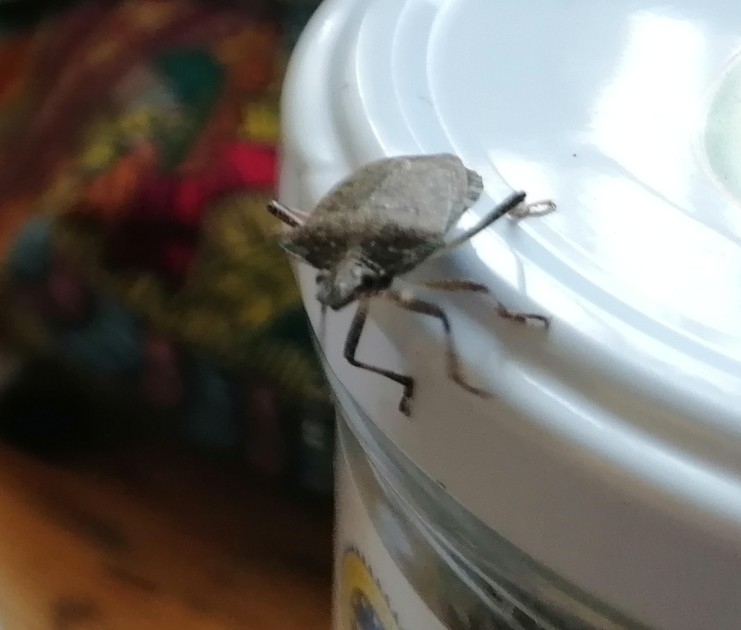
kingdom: Animalia
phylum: Arthropoda
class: Insecta
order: Hemiptera
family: Pentatomidae
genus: Halyomorpha
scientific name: Halyomorpha halys
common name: Brown marmorated stink bug
